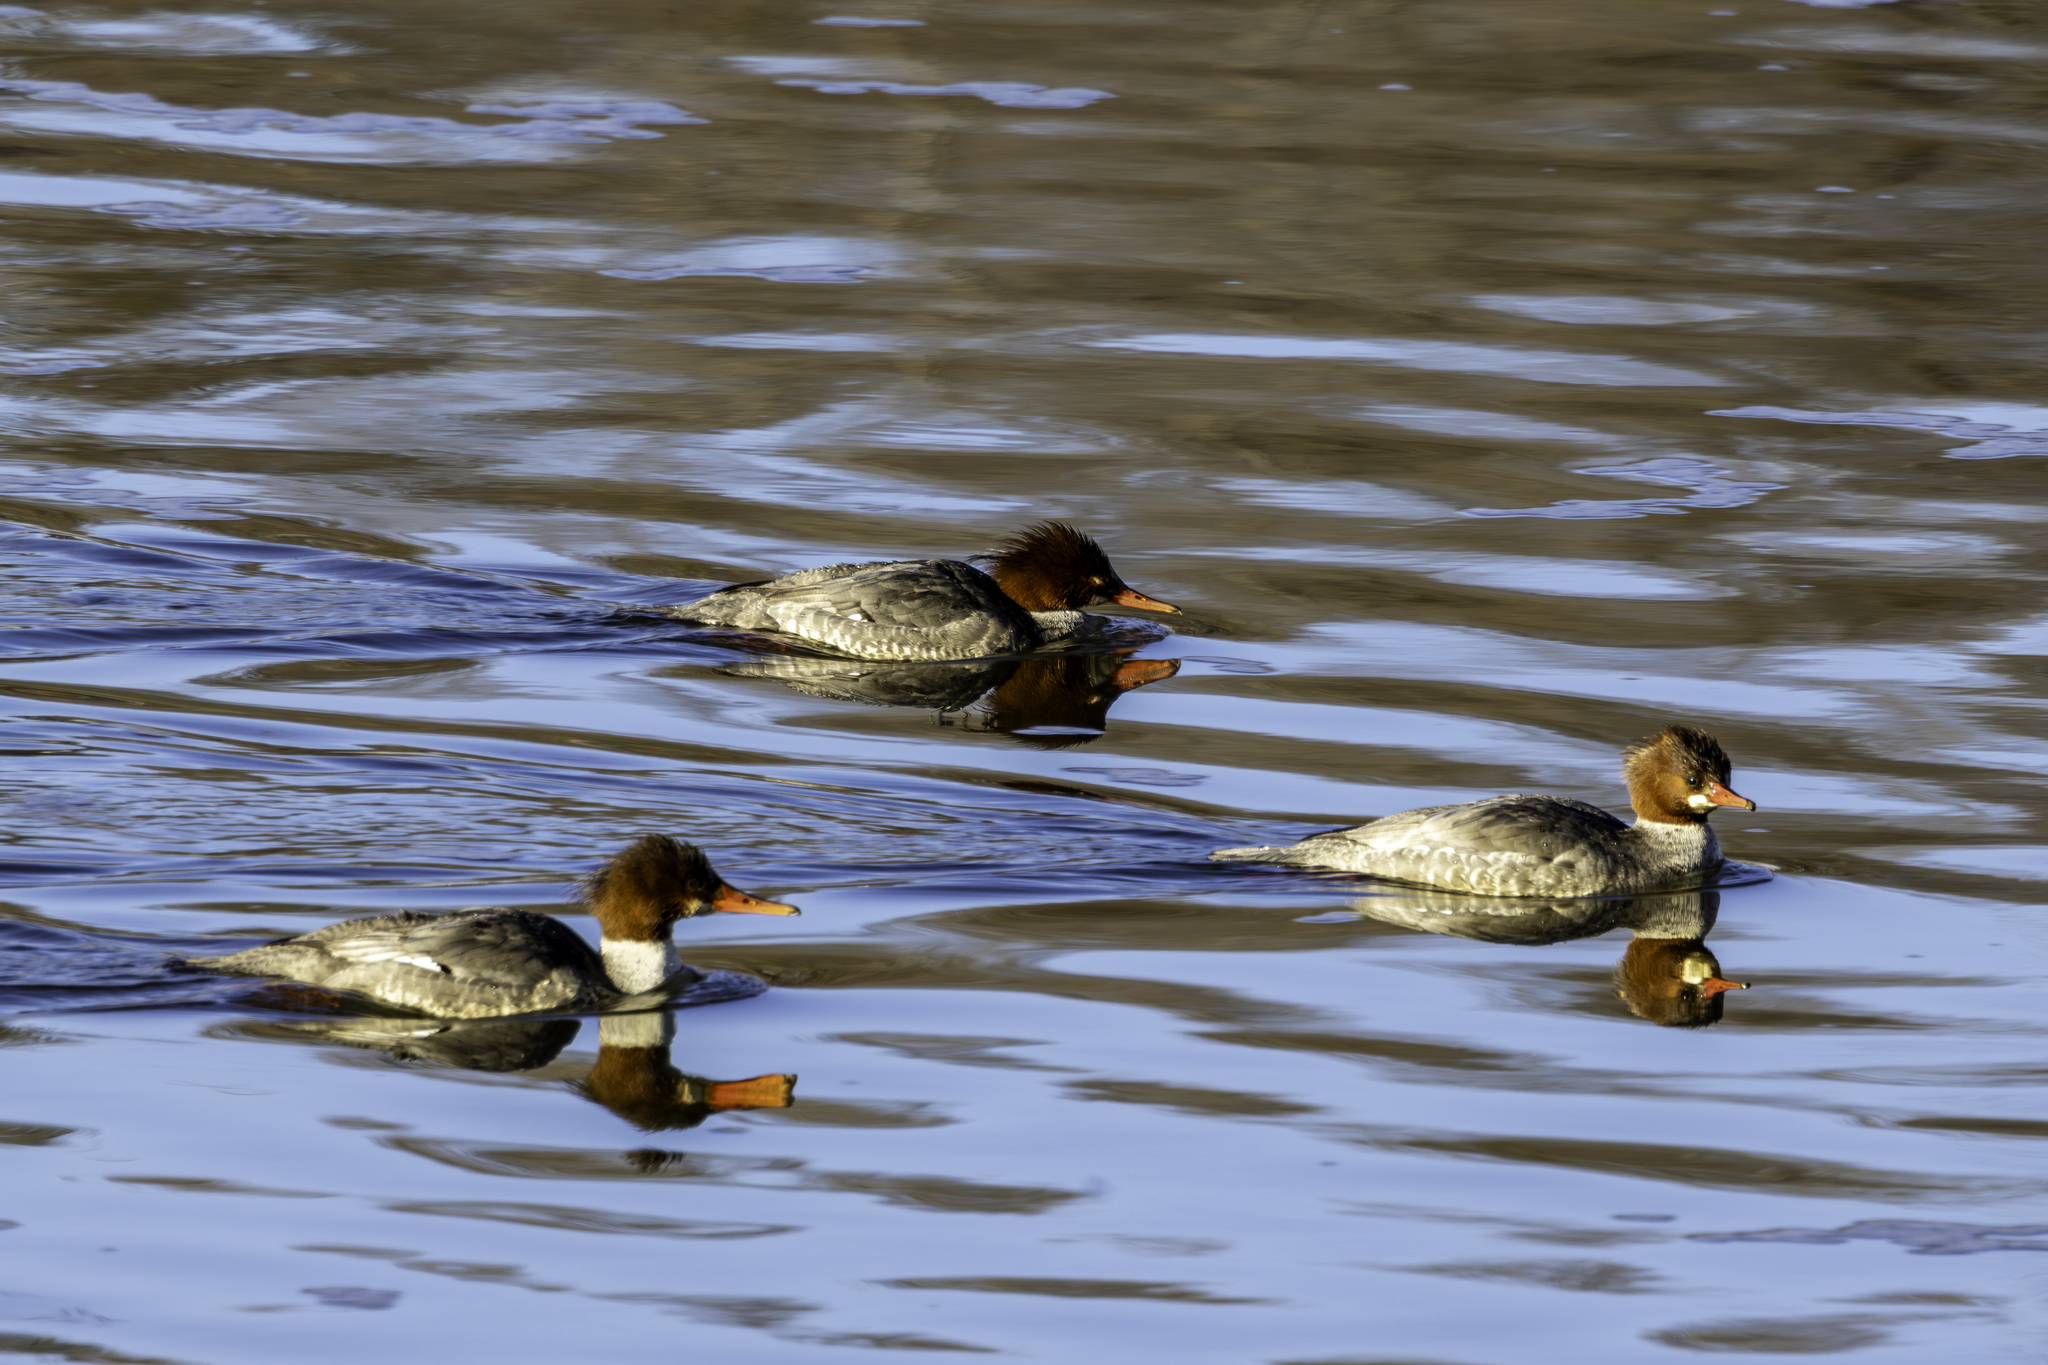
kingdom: Animalia
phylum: Chordata
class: Aves
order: Anseriformes
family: Anatidae
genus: Mergus
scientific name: Mergus merganser
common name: Common merganser
